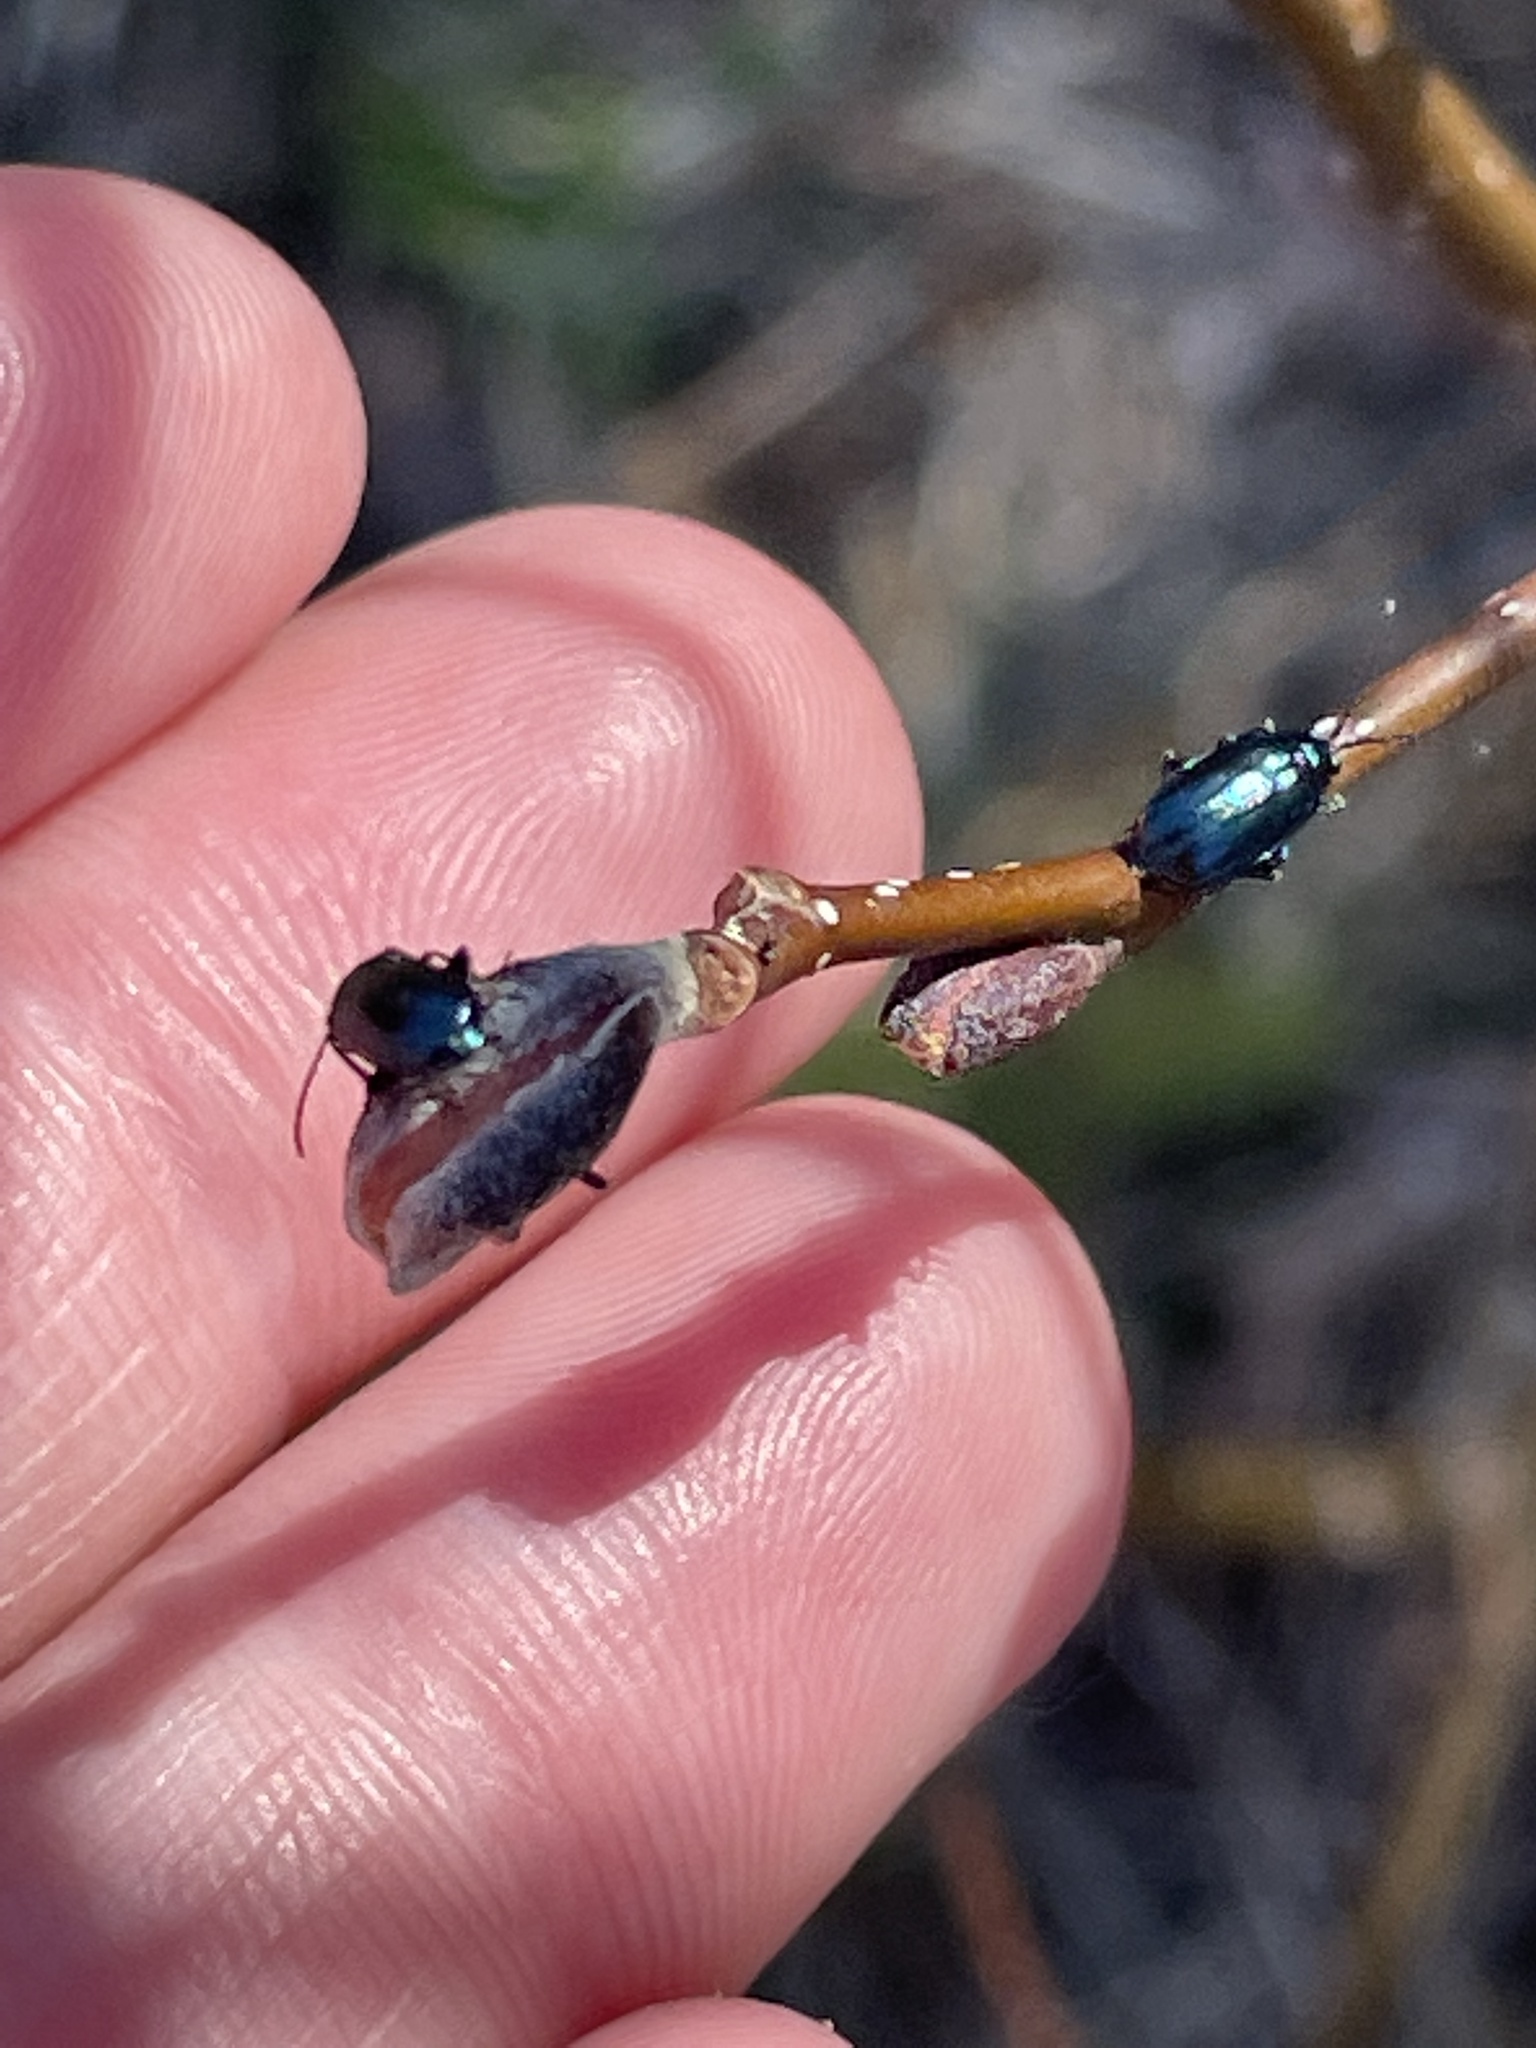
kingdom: Animalia
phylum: Arthropoda
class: Insecta
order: Coleoptera
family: Chrysomelidae
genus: Altica
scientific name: Altica ambiens
